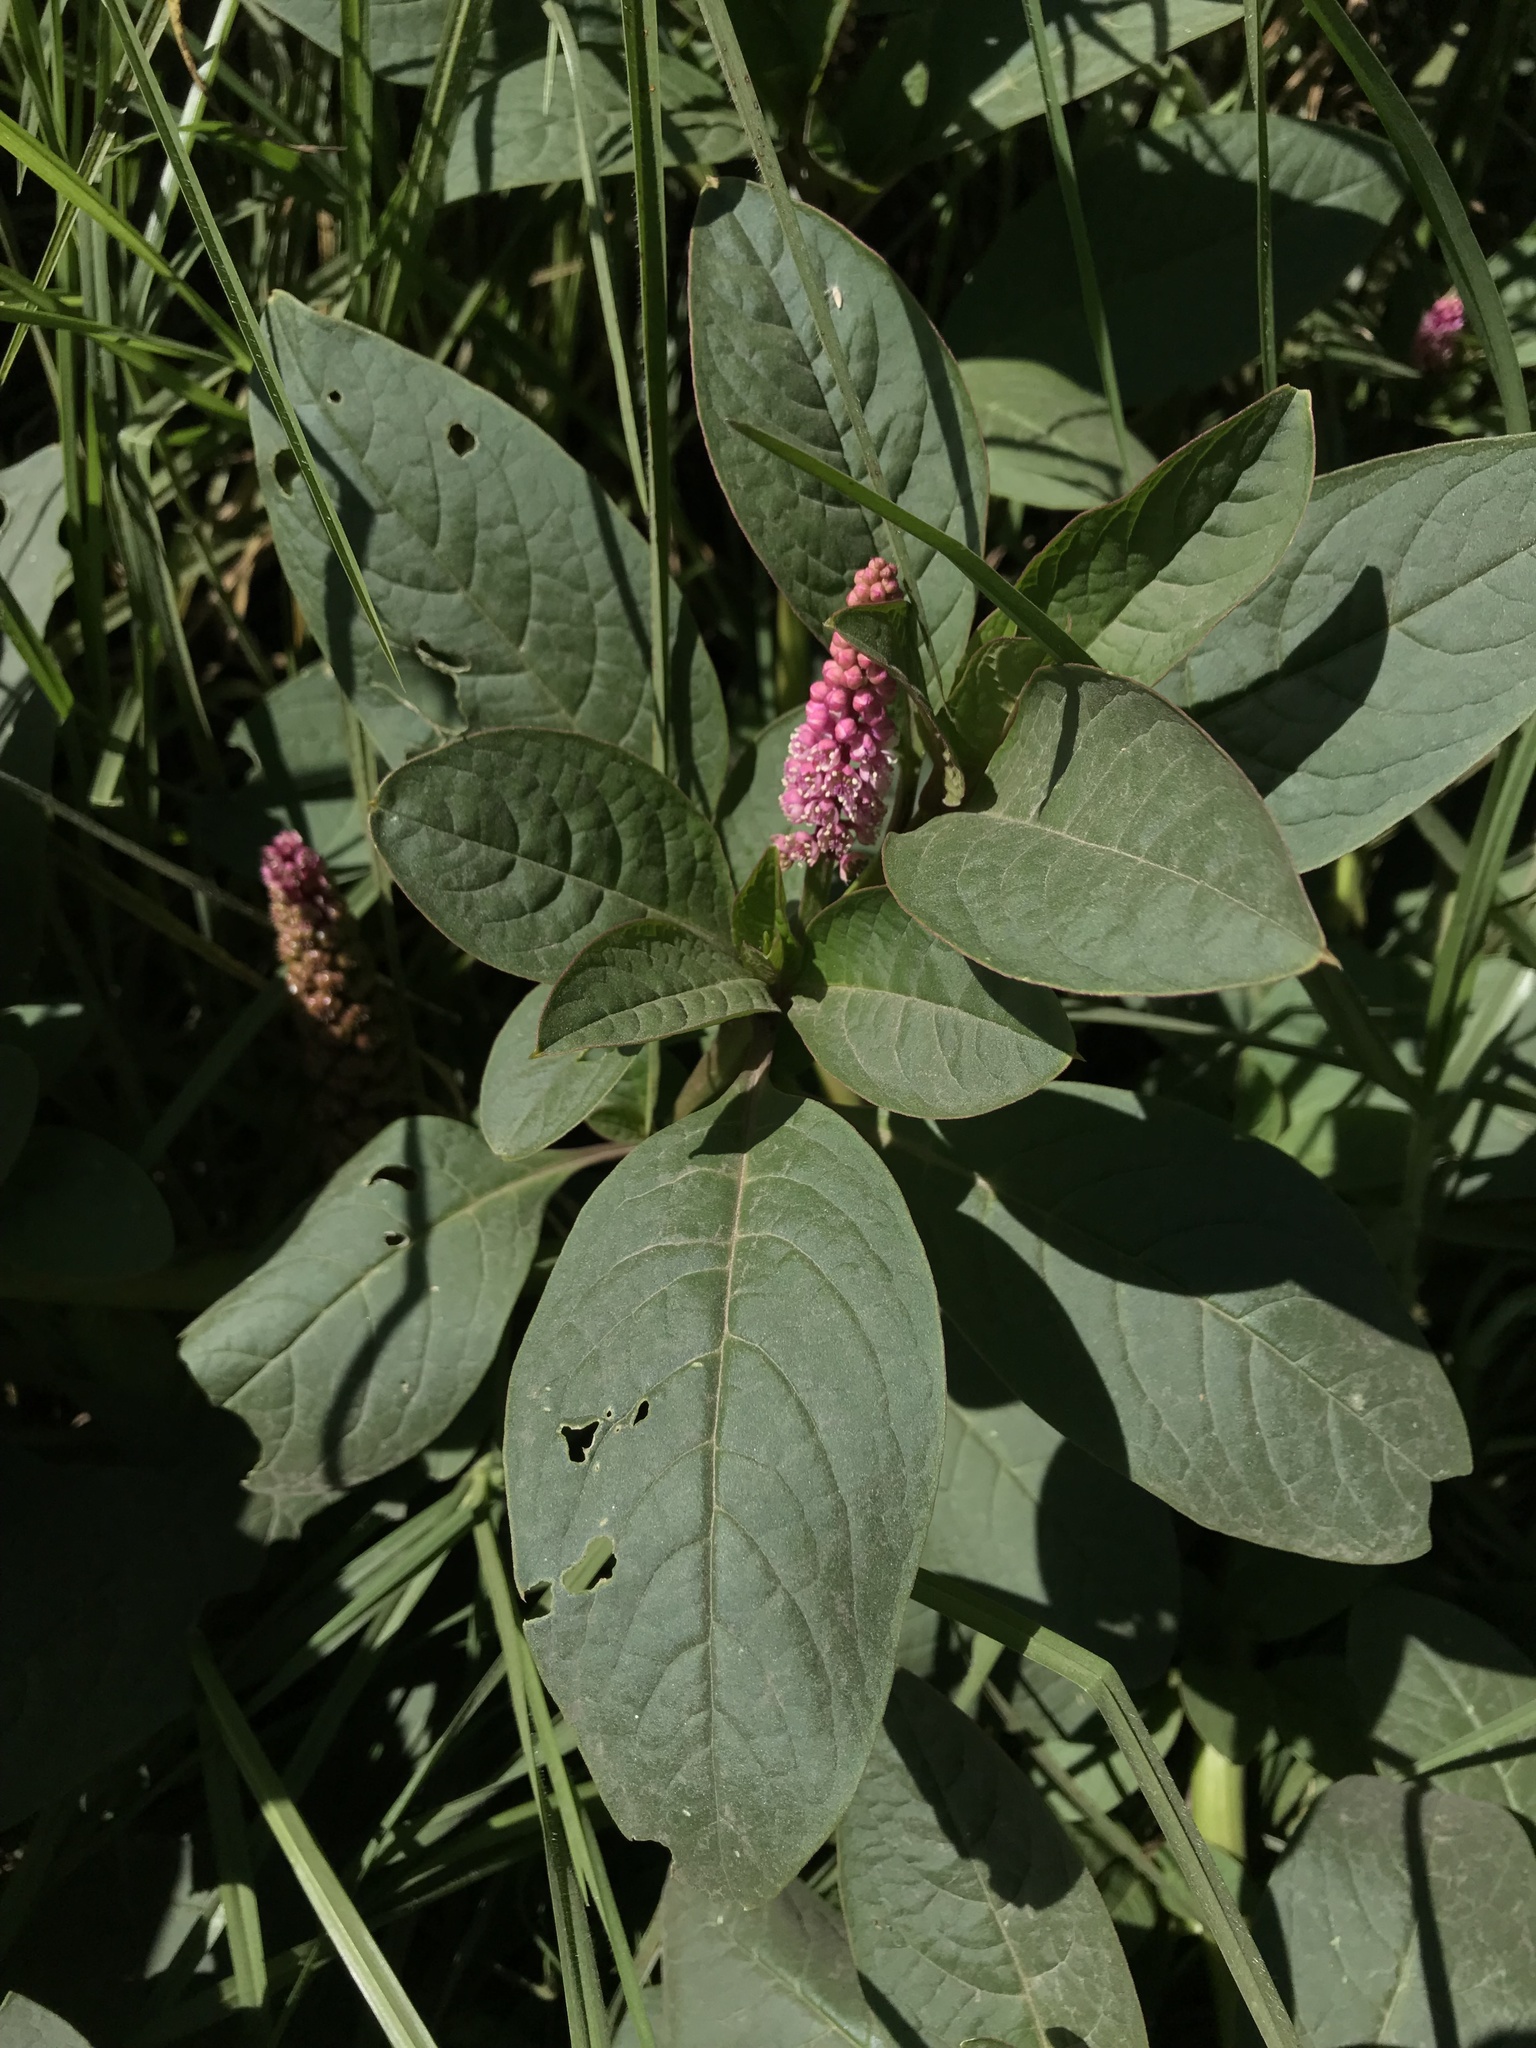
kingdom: Plantae
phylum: Tracheophyta
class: Magnoliopsida
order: Caryophyllales
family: Phytolaccaceae
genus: Phytolacca
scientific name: Phytolacca bogotensis
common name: Southern pokeweed
